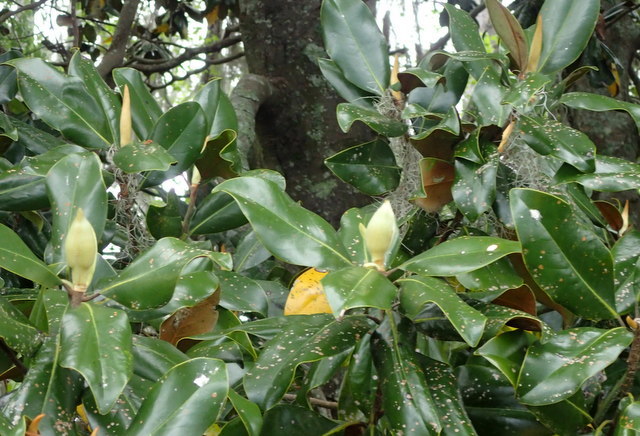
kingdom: Plantae
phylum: Tracheophyta
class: Magnoliopsida
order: Magnoliales
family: Magnoliaceae
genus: Magnolia
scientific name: Magnolia grandiflora
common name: Southern magnolia
